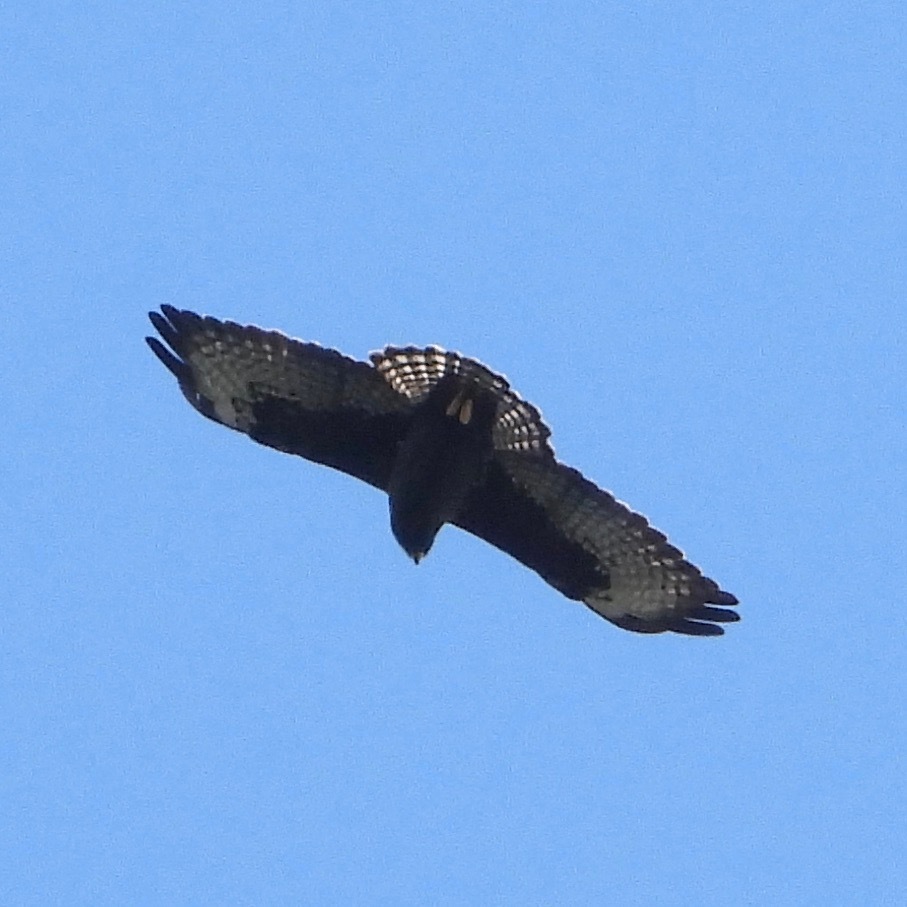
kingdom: Animalia
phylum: Chordata
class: Aves
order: Accipitriformes
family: Accipitridae
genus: Buteo
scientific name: Buteo brachyurus
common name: Short-tailed hawk
